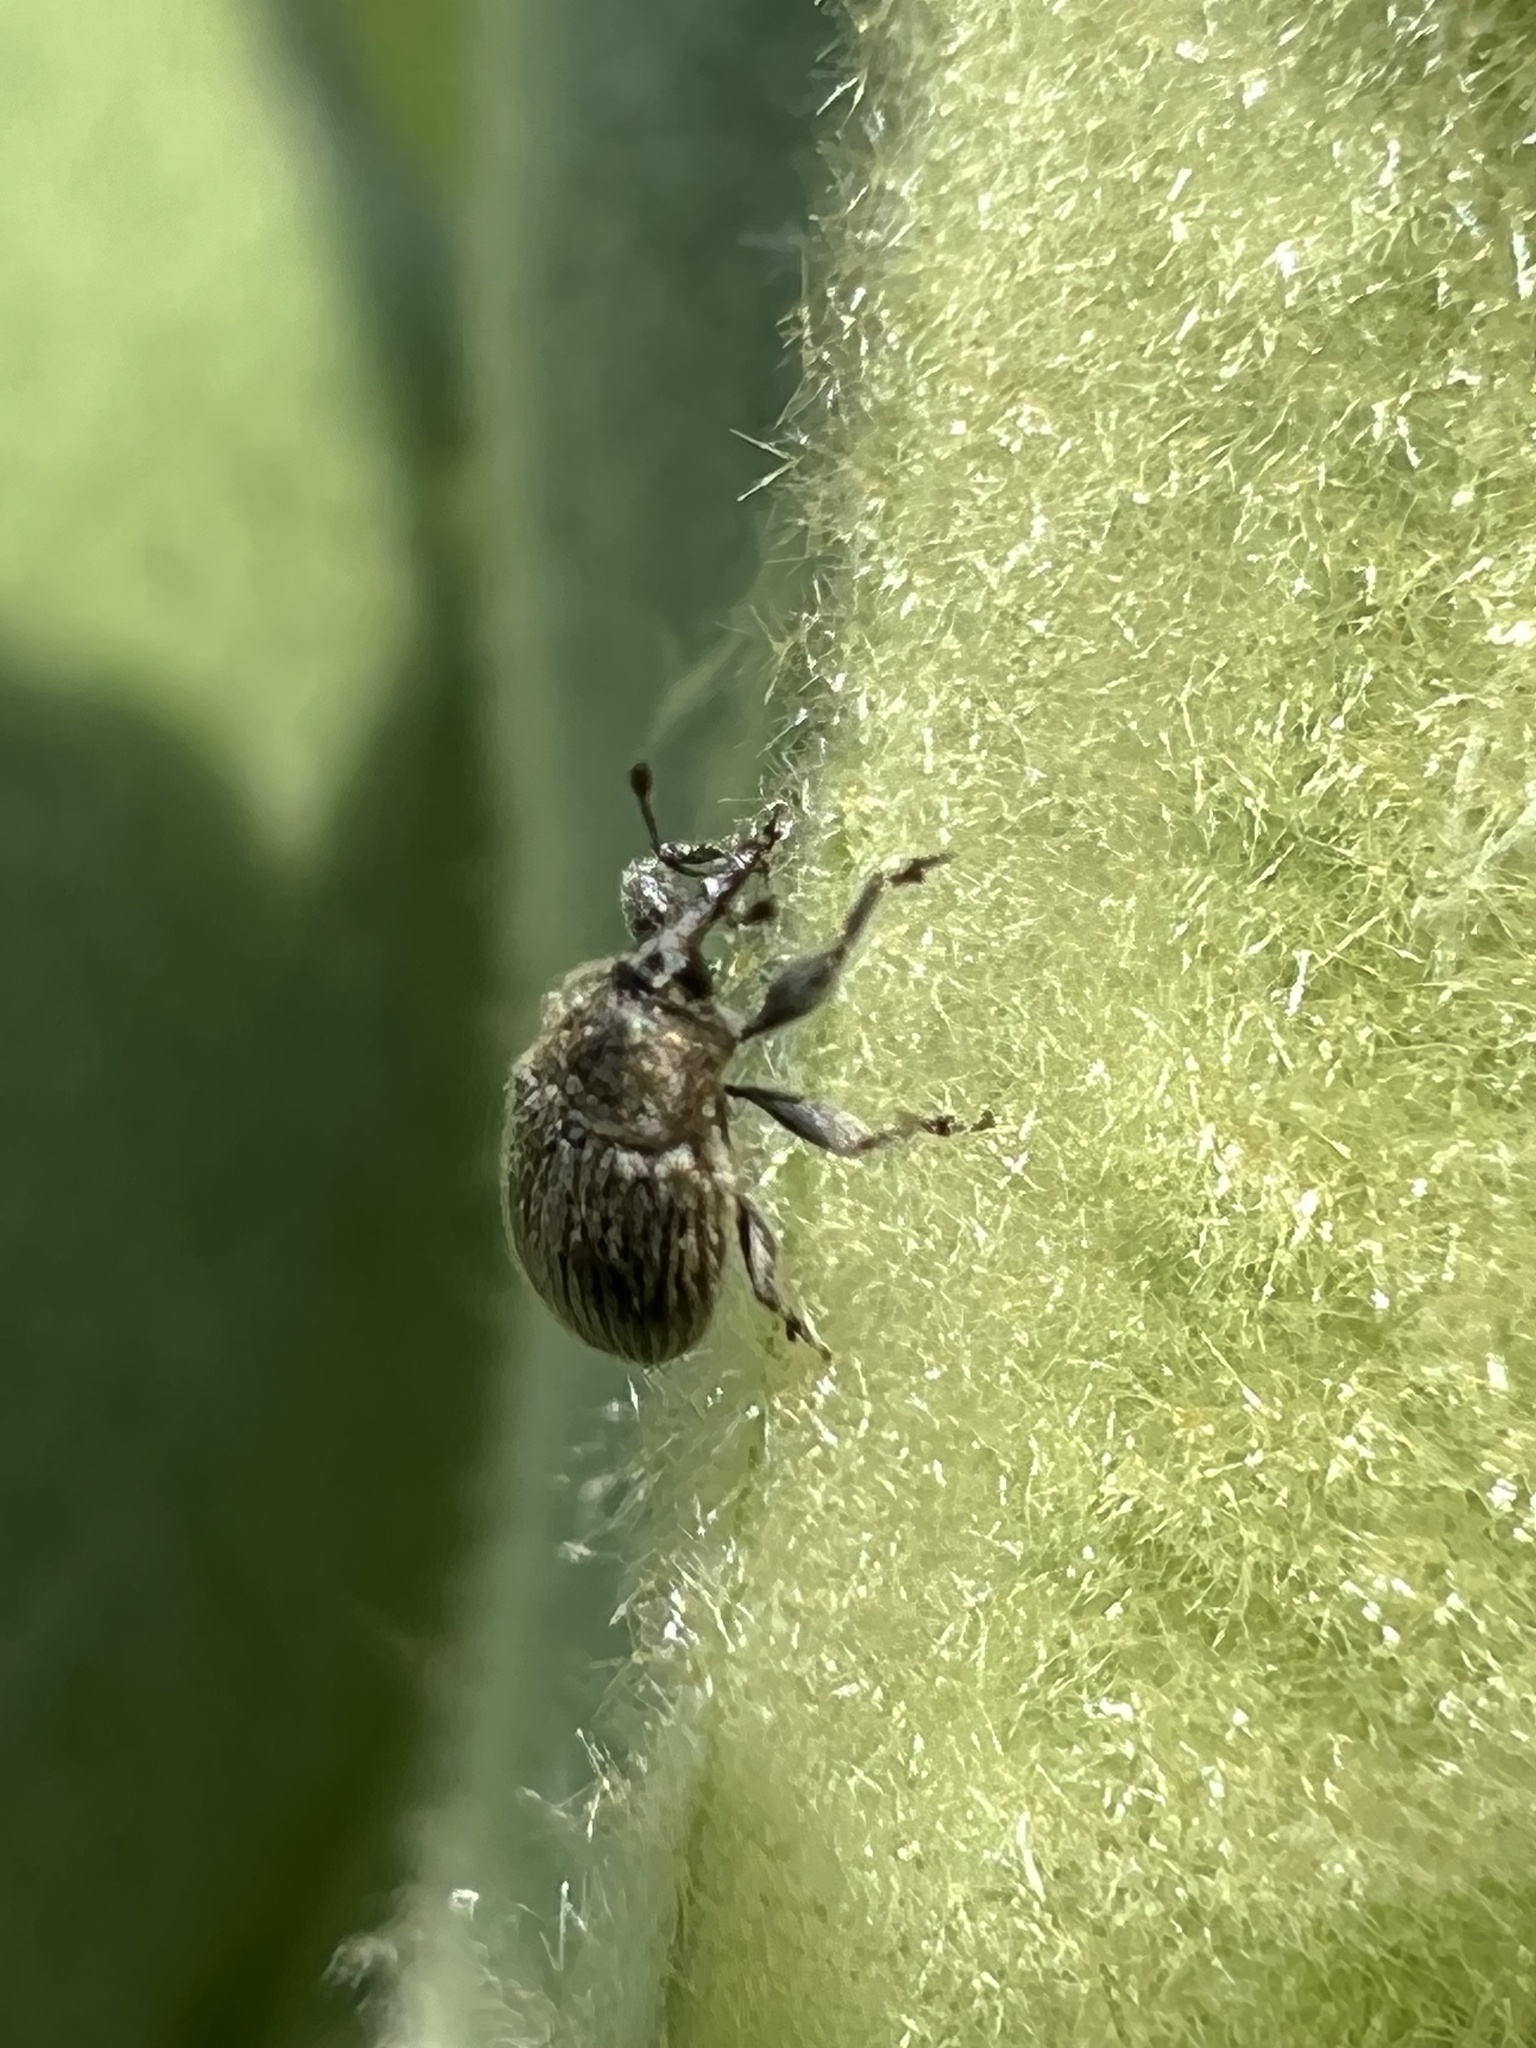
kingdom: Animalia
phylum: Arthropoda
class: Insecta
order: Coleoptera
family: Curculionidae
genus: Rhinusa
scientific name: Rhinusa tetra
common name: Weevil
